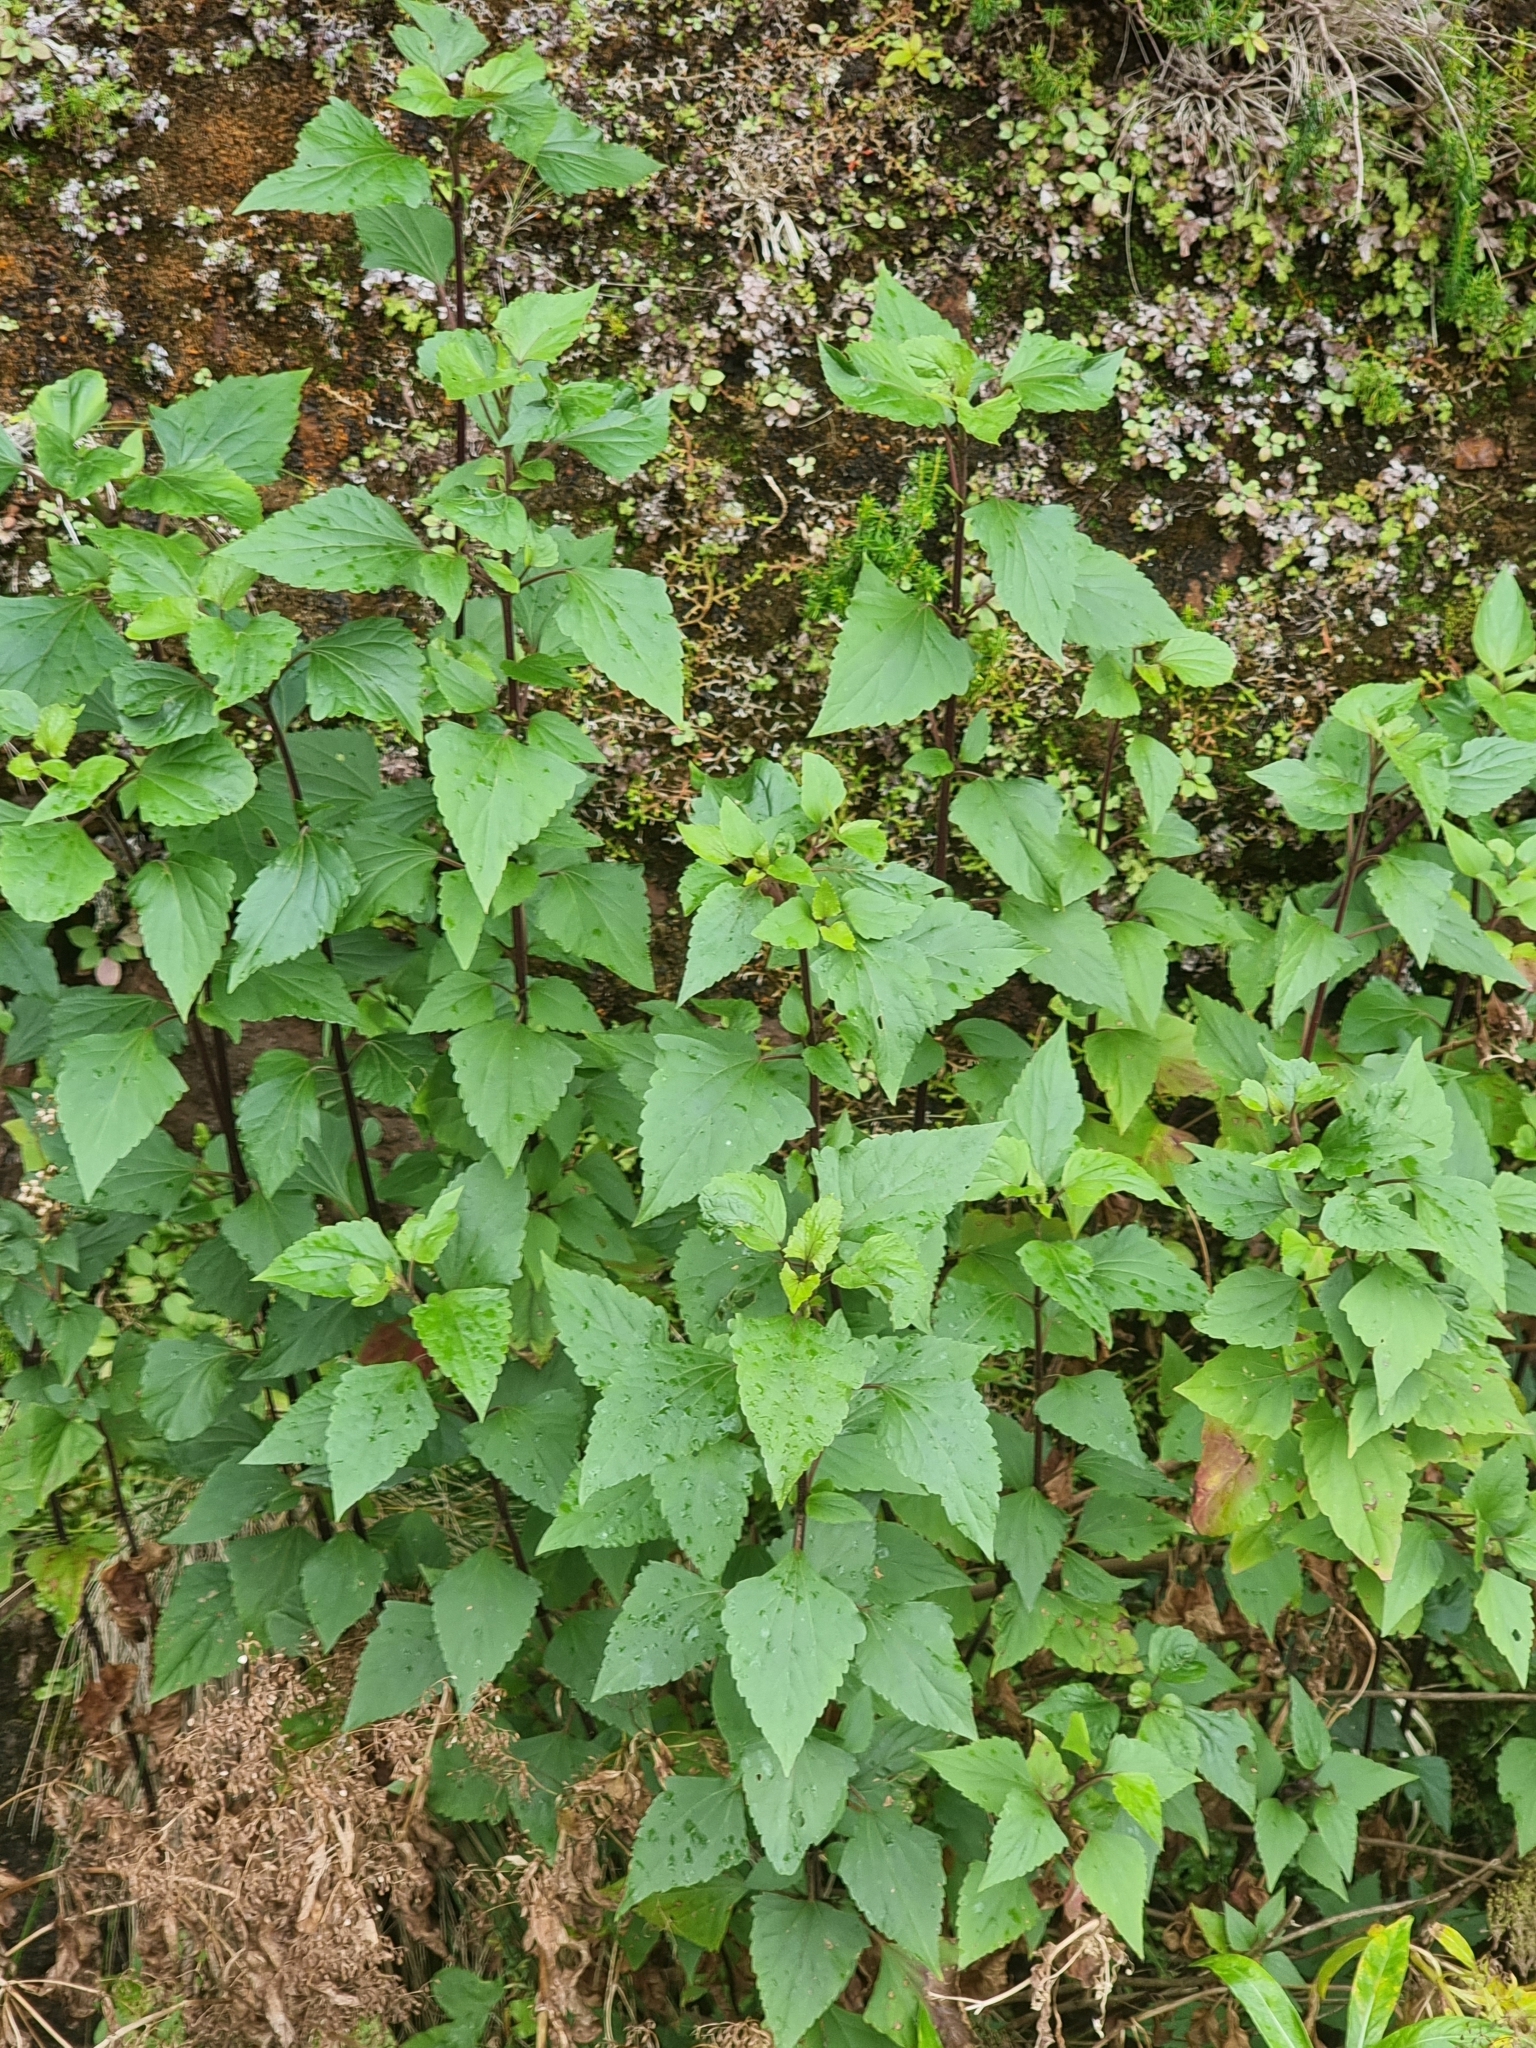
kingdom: Plantae
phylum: Tracheophyta
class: Magnoliopsida
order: Asterales
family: Asteraceae
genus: Ageratina
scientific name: Ageratina adenophora
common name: Sticky snakeroot
